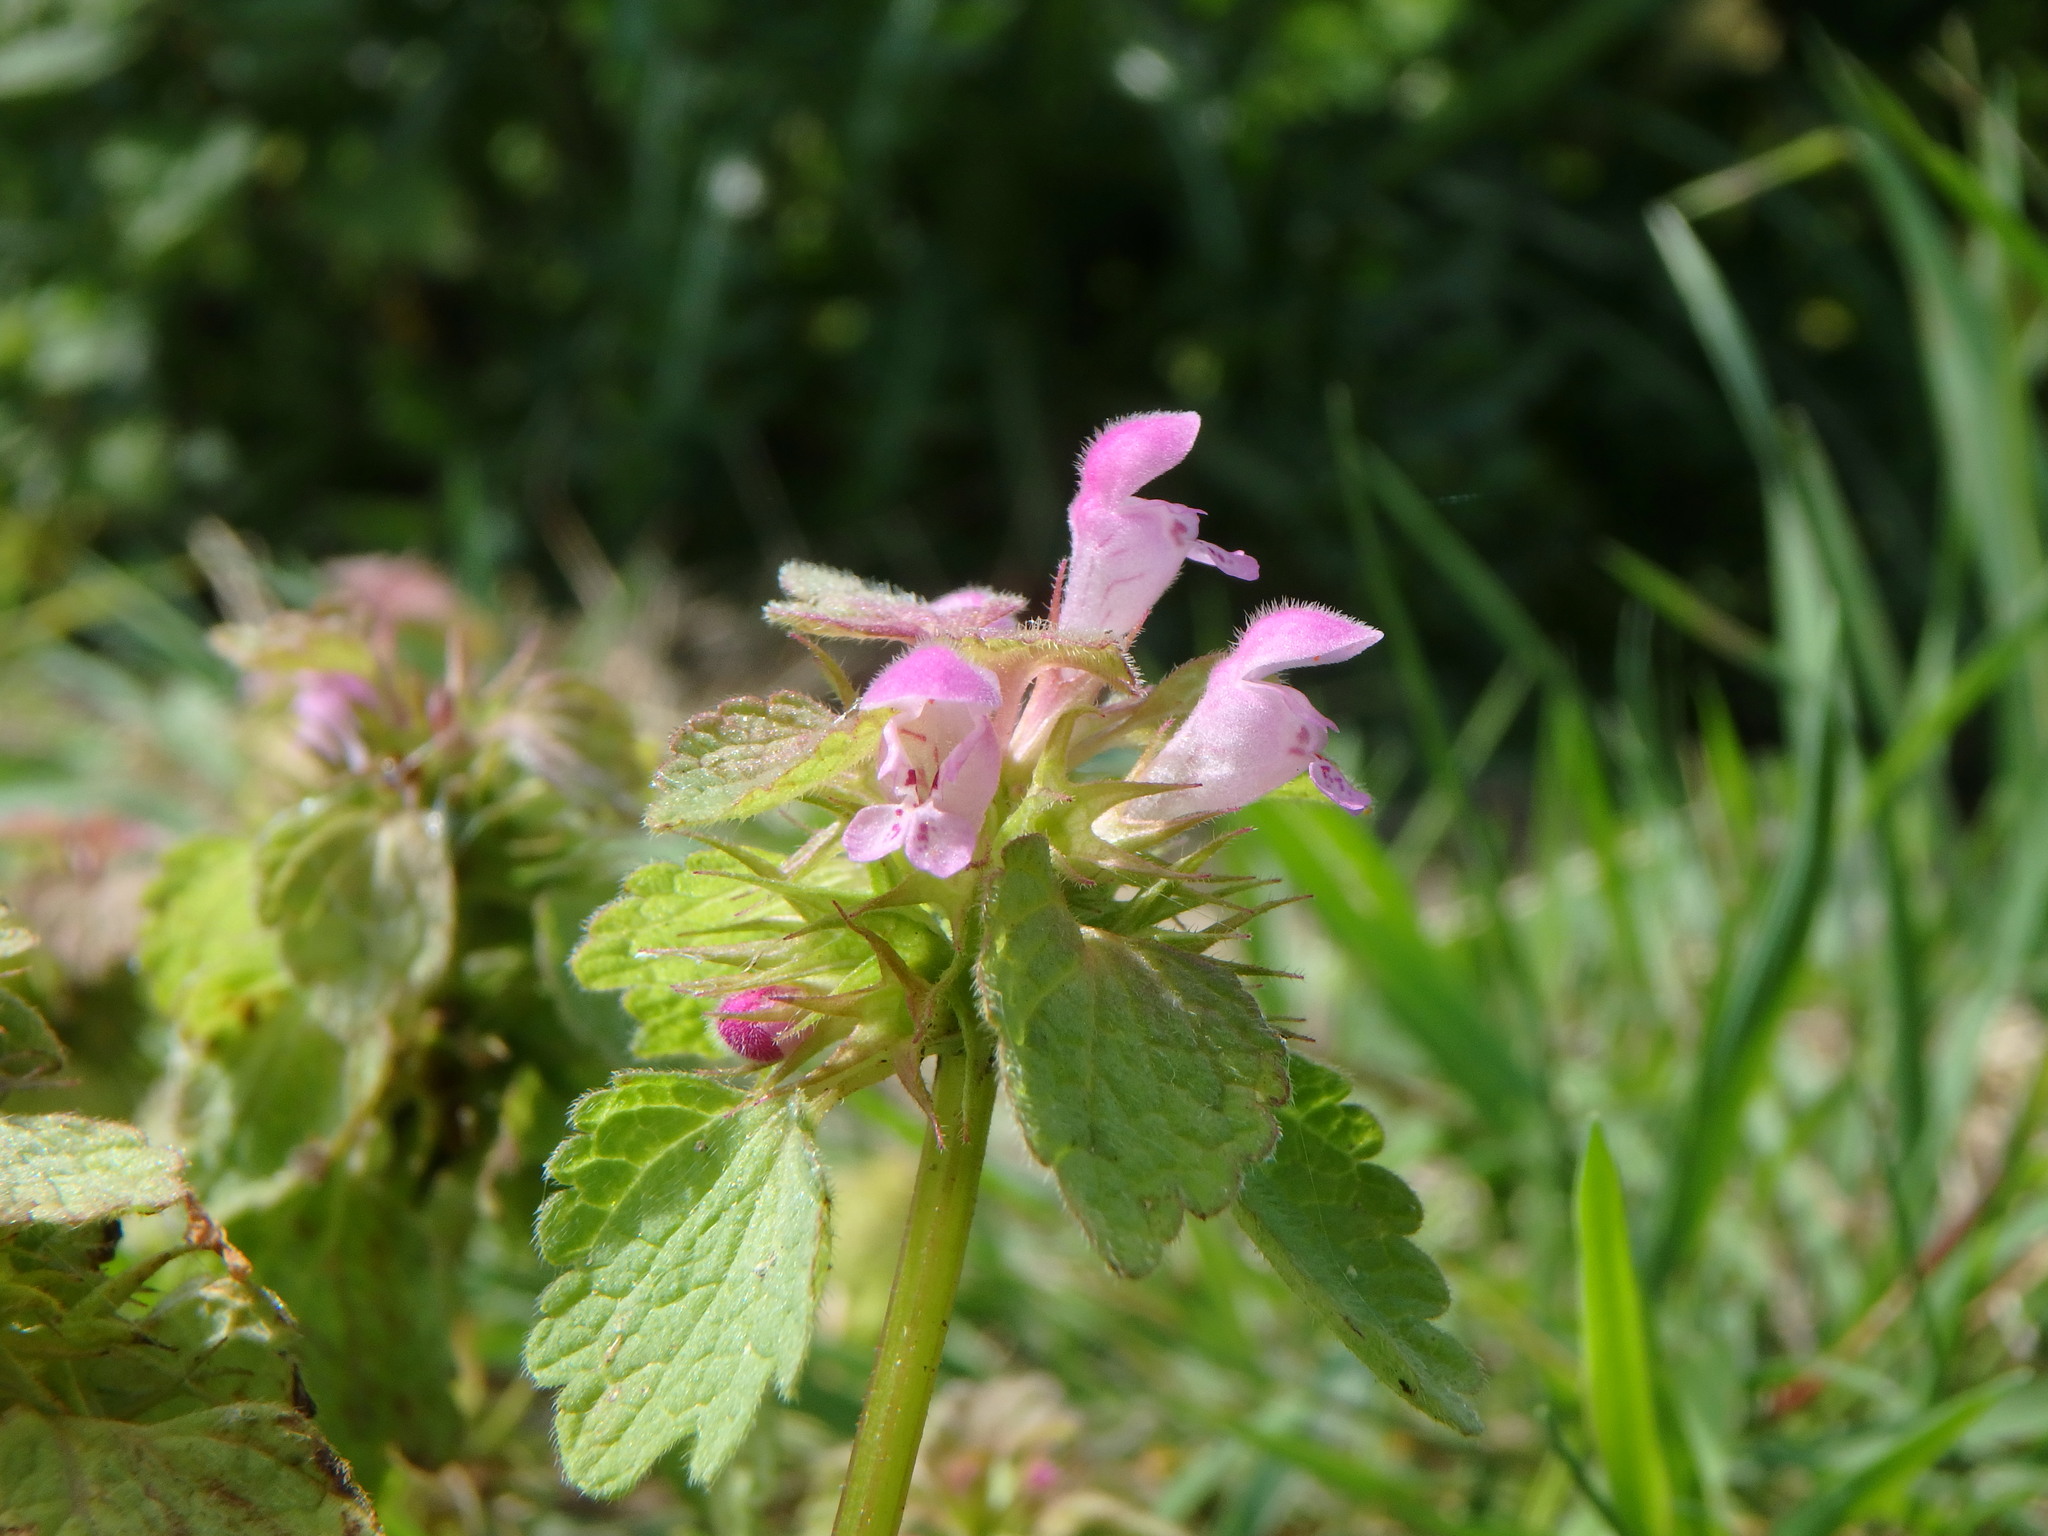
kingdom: Plantae
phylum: Tracheophyta
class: Magnoliopsida
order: Lamiales
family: Lamiaceae
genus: Lamium
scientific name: Lamium purpureum
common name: Red dead-nettle
